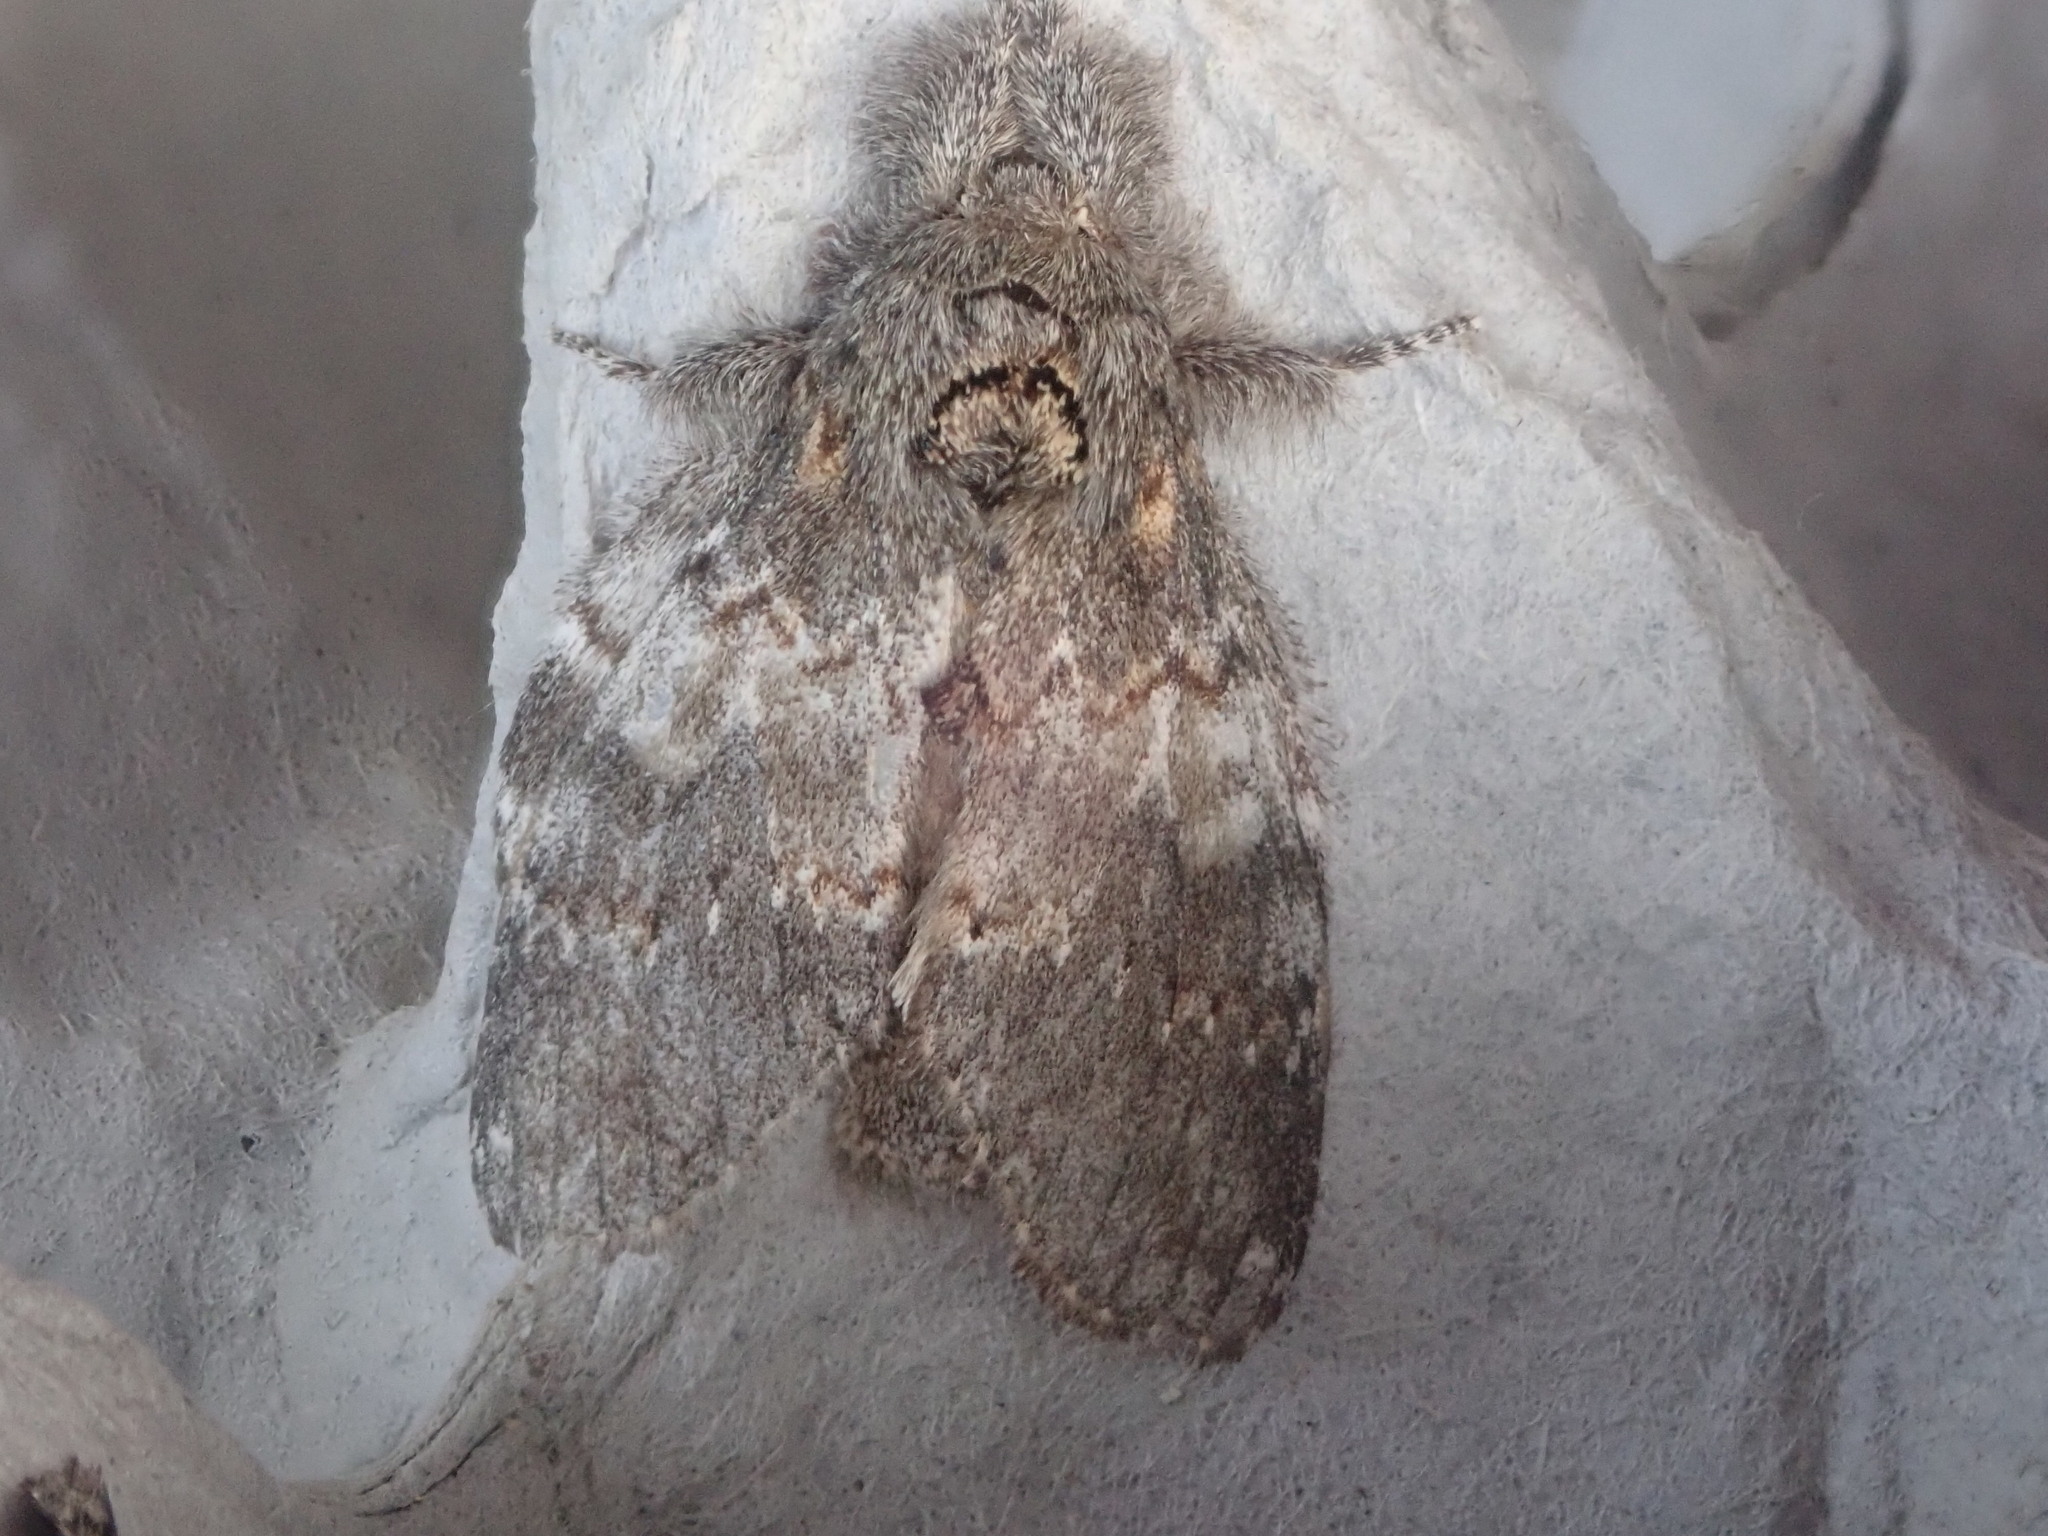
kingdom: Animalia
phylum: Arthropoda
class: Insecta
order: Lepidoptera
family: Notodontidae
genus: Peridea
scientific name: Peridea angulosa
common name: Angulose prominent
